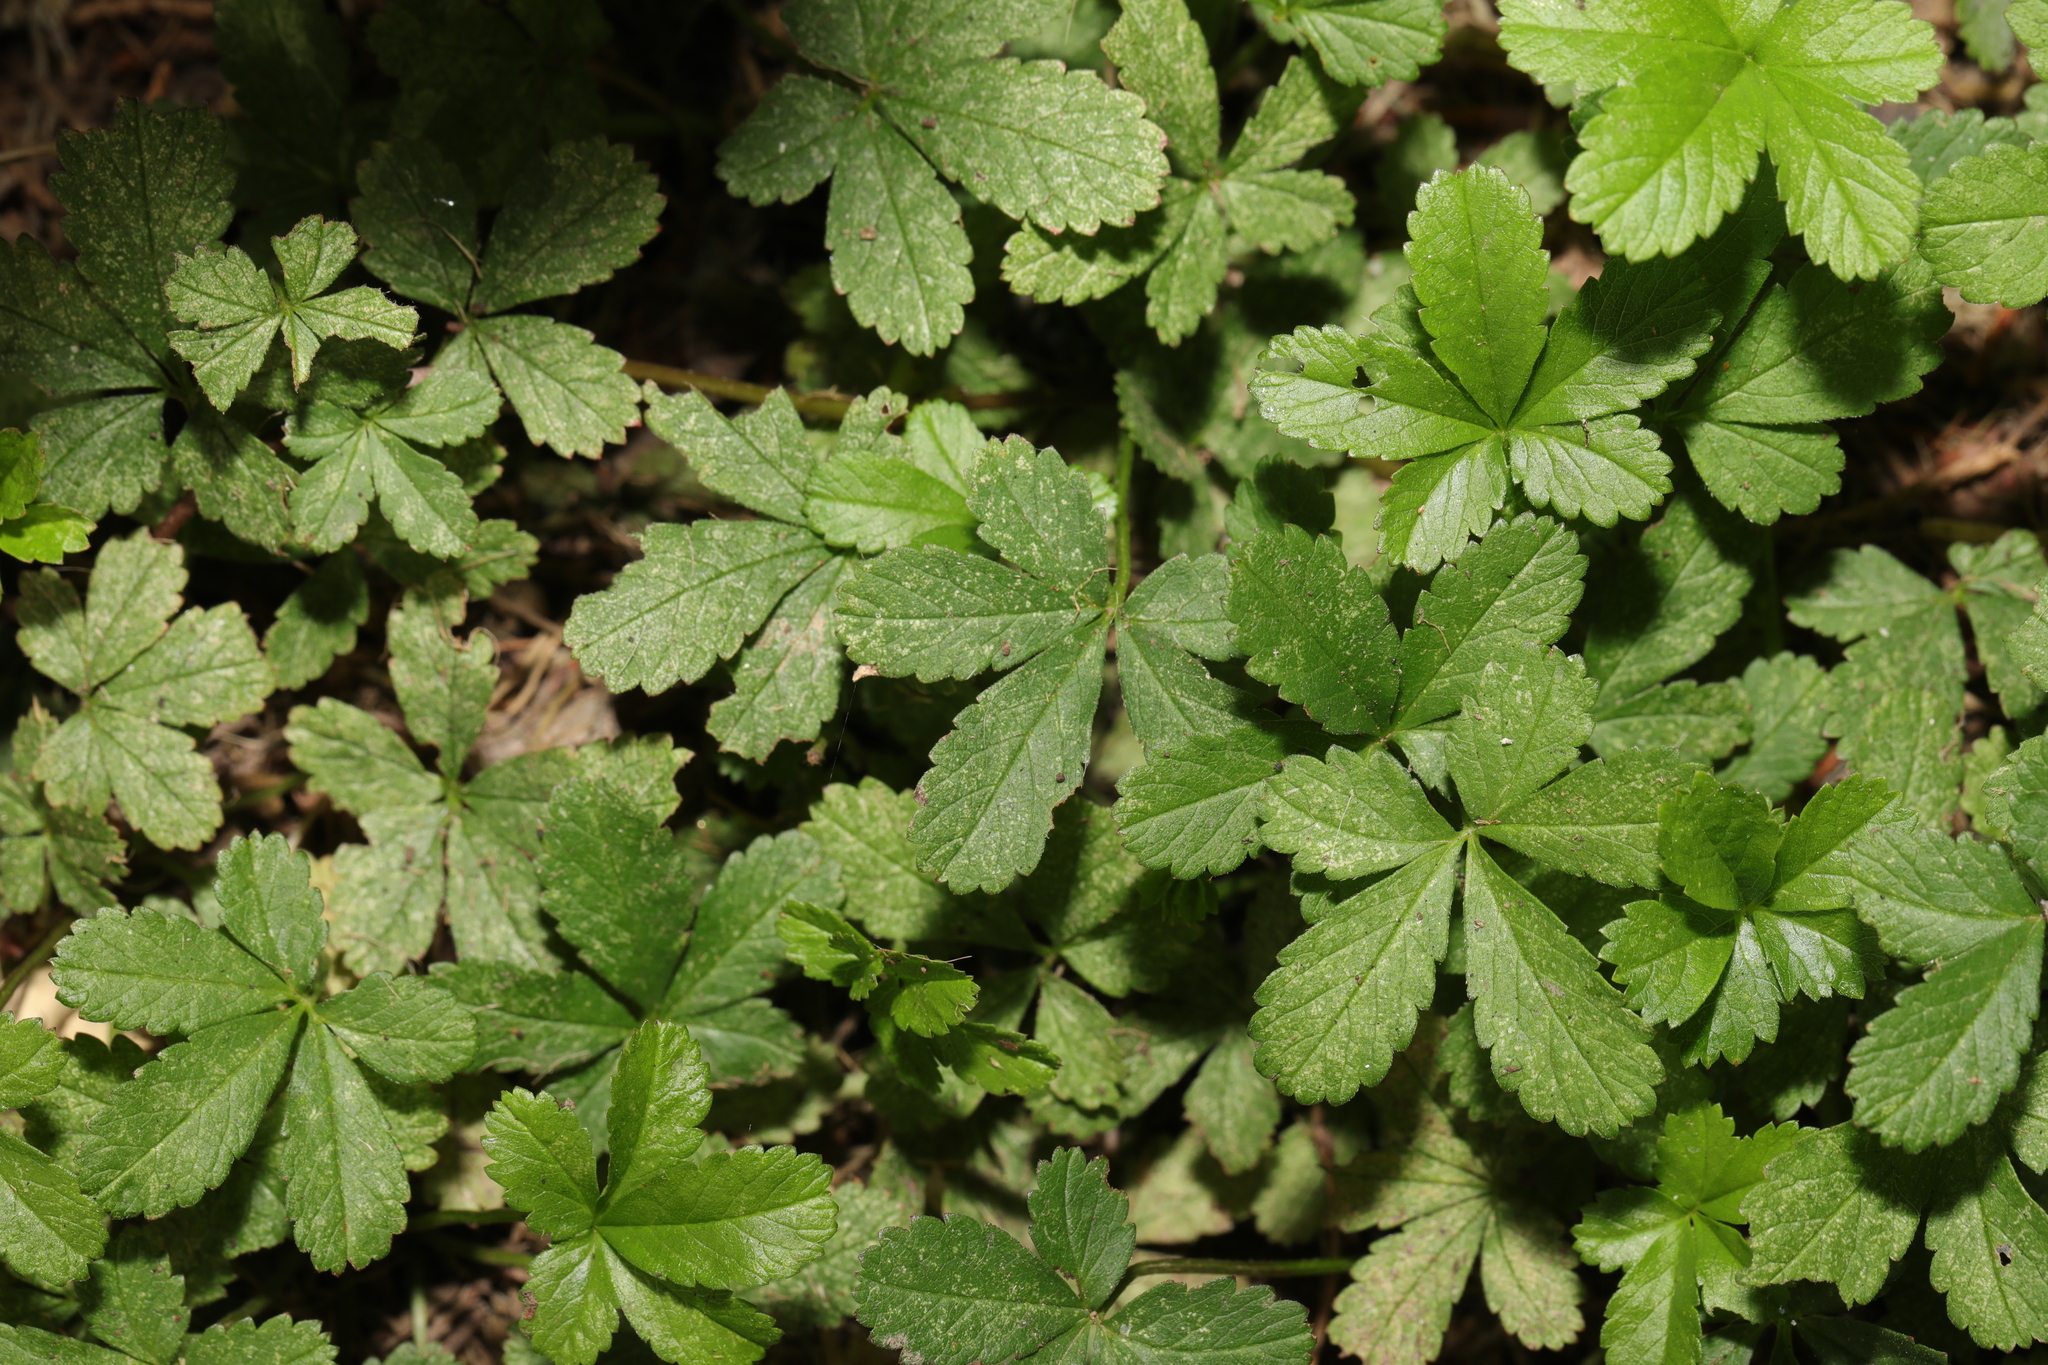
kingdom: Plantae
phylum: Tracheophyta
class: Magnoliopsida
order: Rosales
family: Rosaceae
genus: Potentilla
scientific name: Potentilla reptans
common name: Creeping cinquefoil
